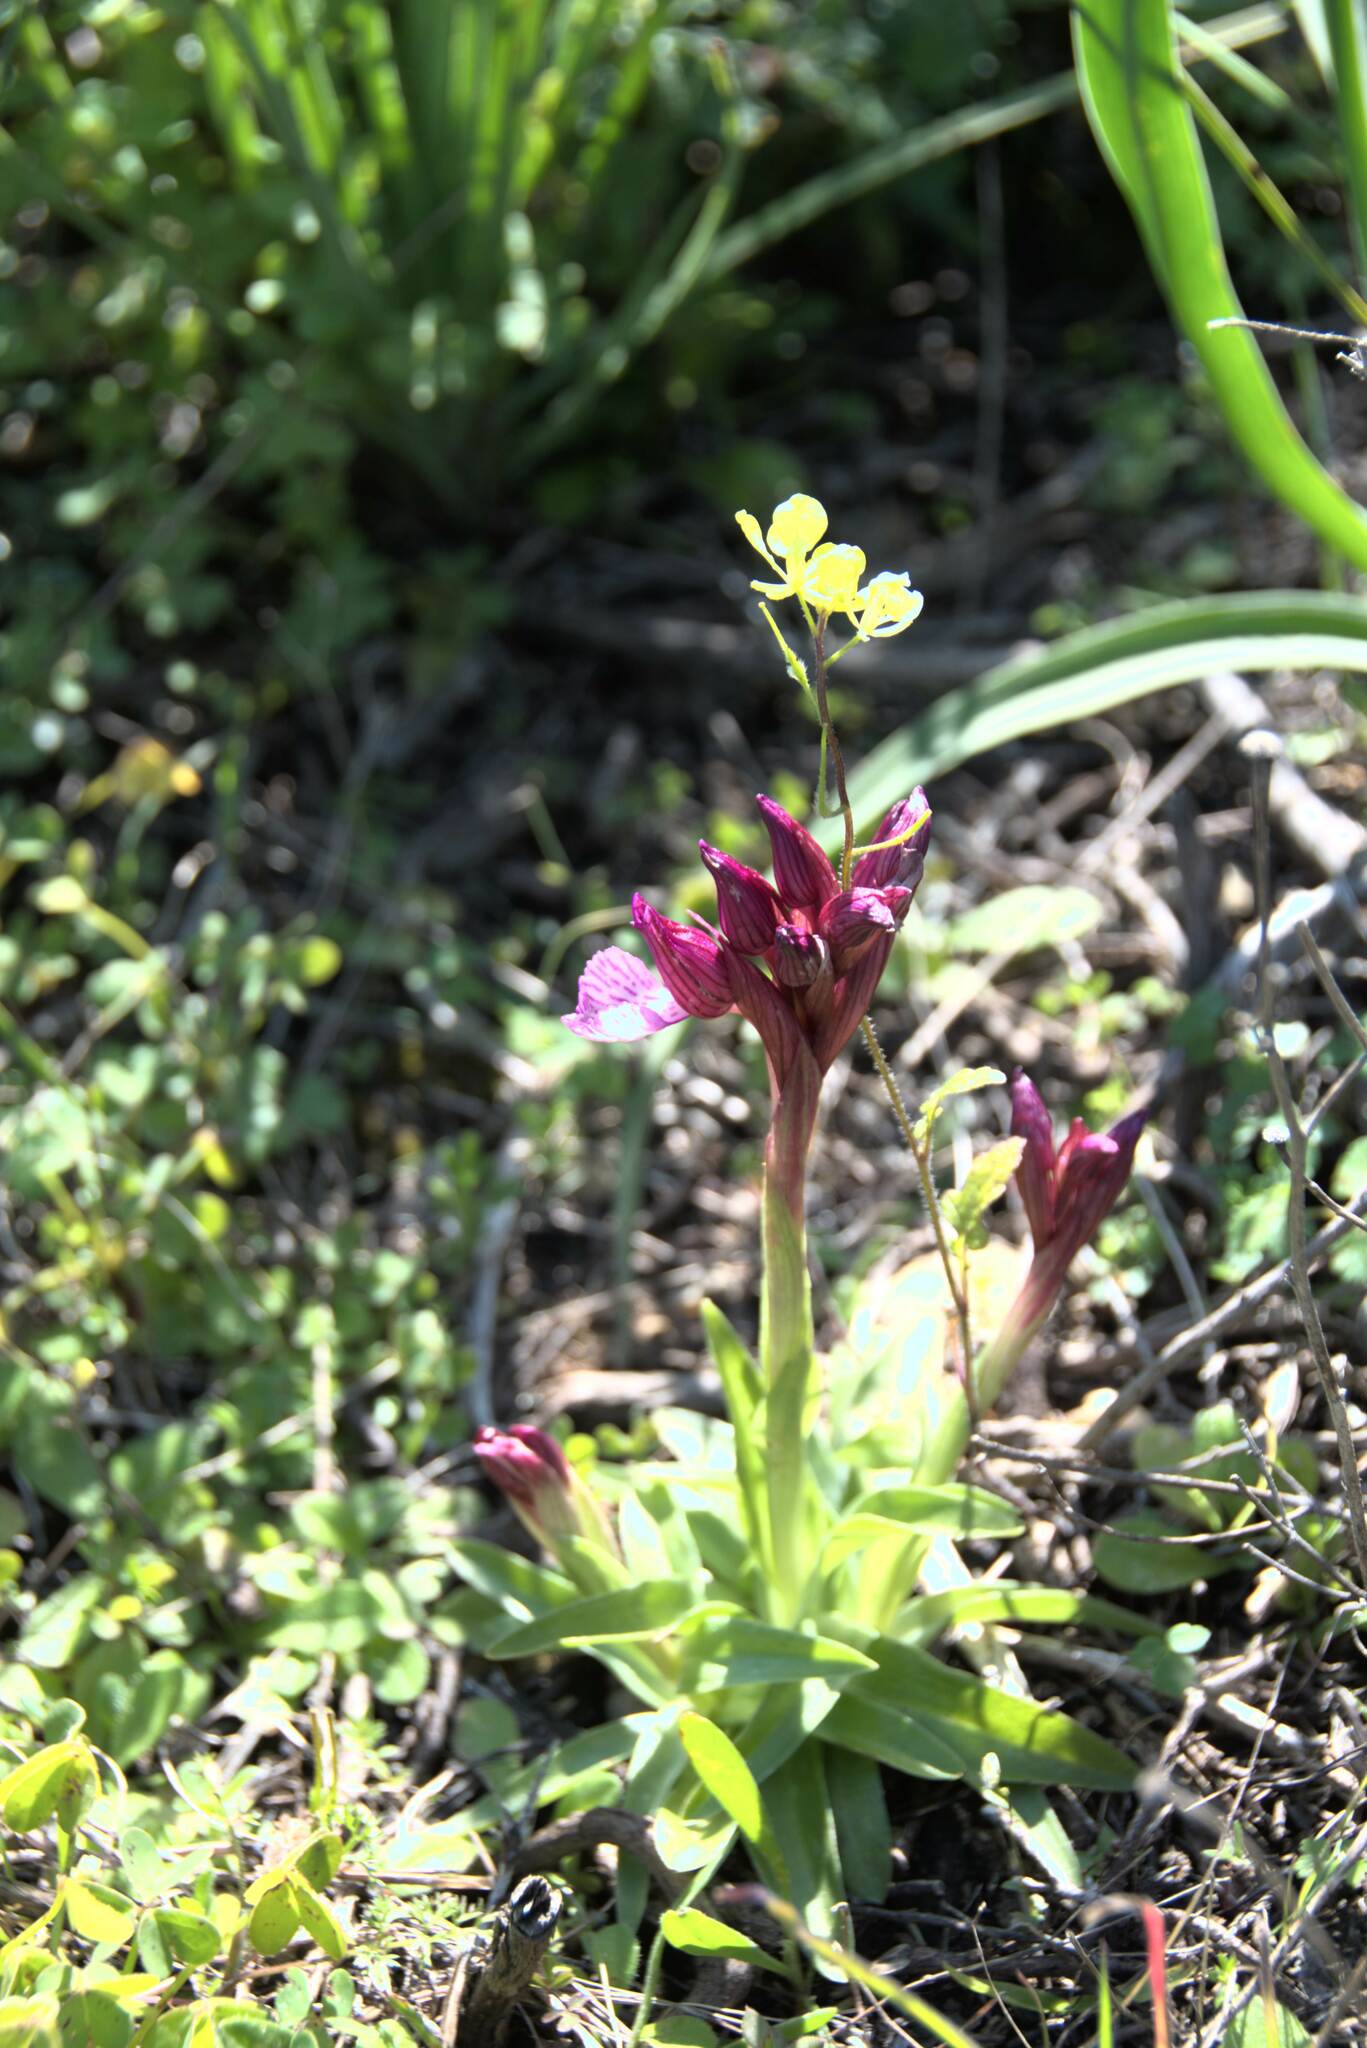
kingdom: Plantae
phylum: Tracheophyta
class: Liliopsida
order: Asparagales
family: Orchidaceae
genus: Anacamptis
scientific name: Anacamptis papilionacea
